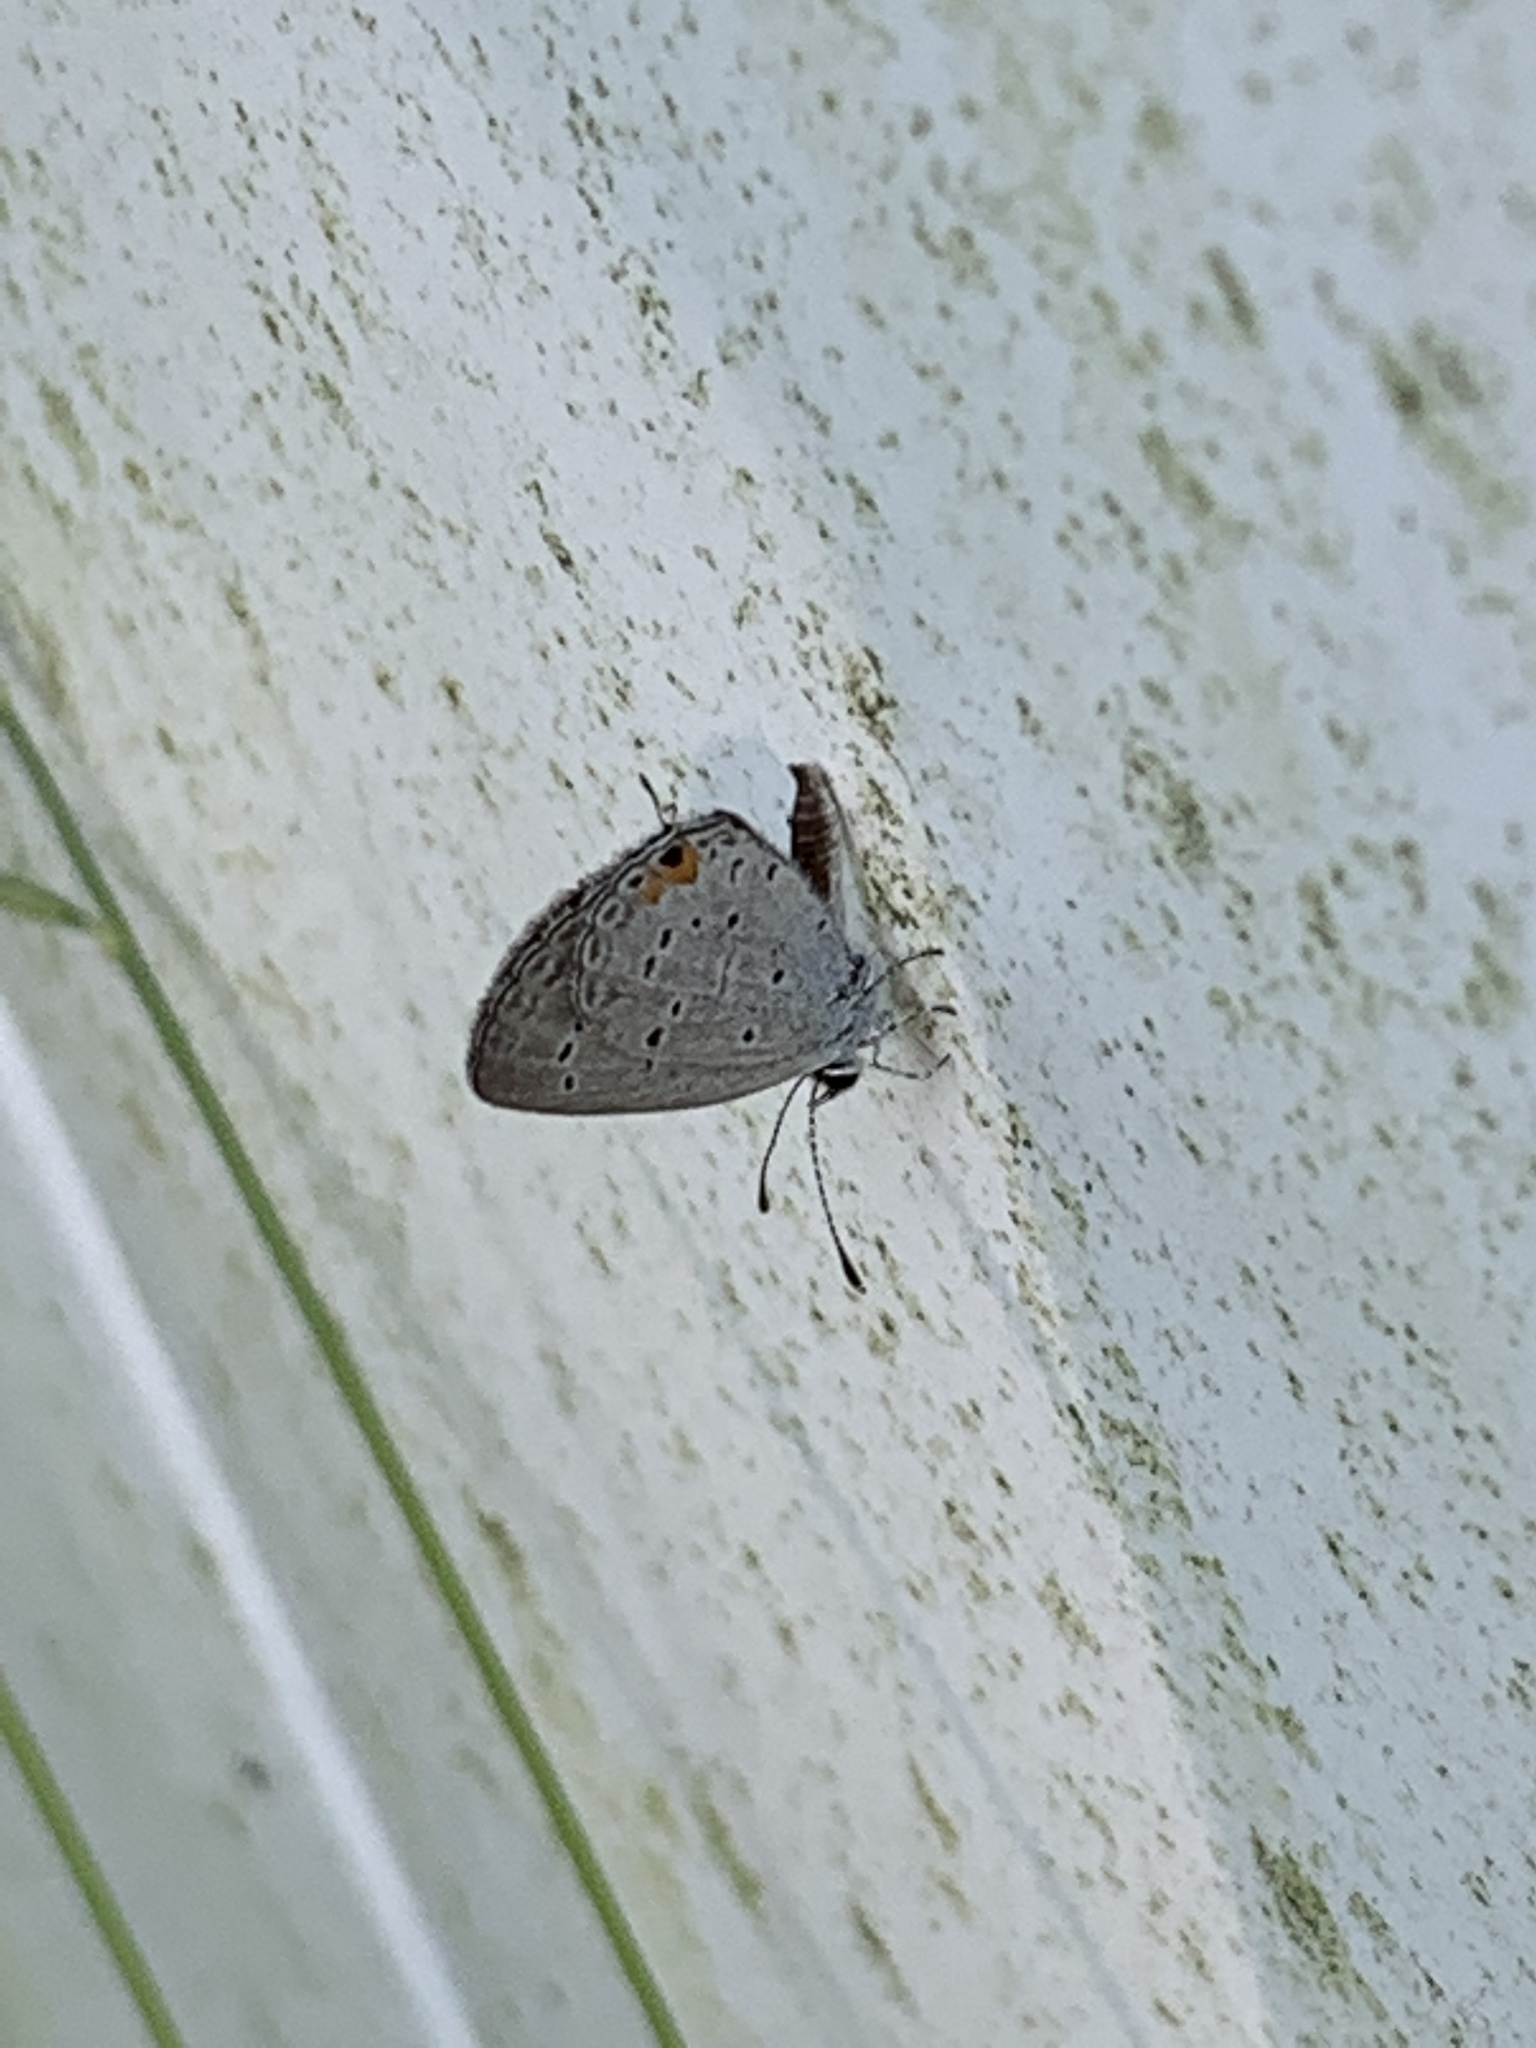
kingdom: Animalia
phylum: Arthropoda
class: Insecta
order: Lepidoptera
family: Lycaenidae
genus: Elkalyce
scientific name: Elkalyce comyntas
